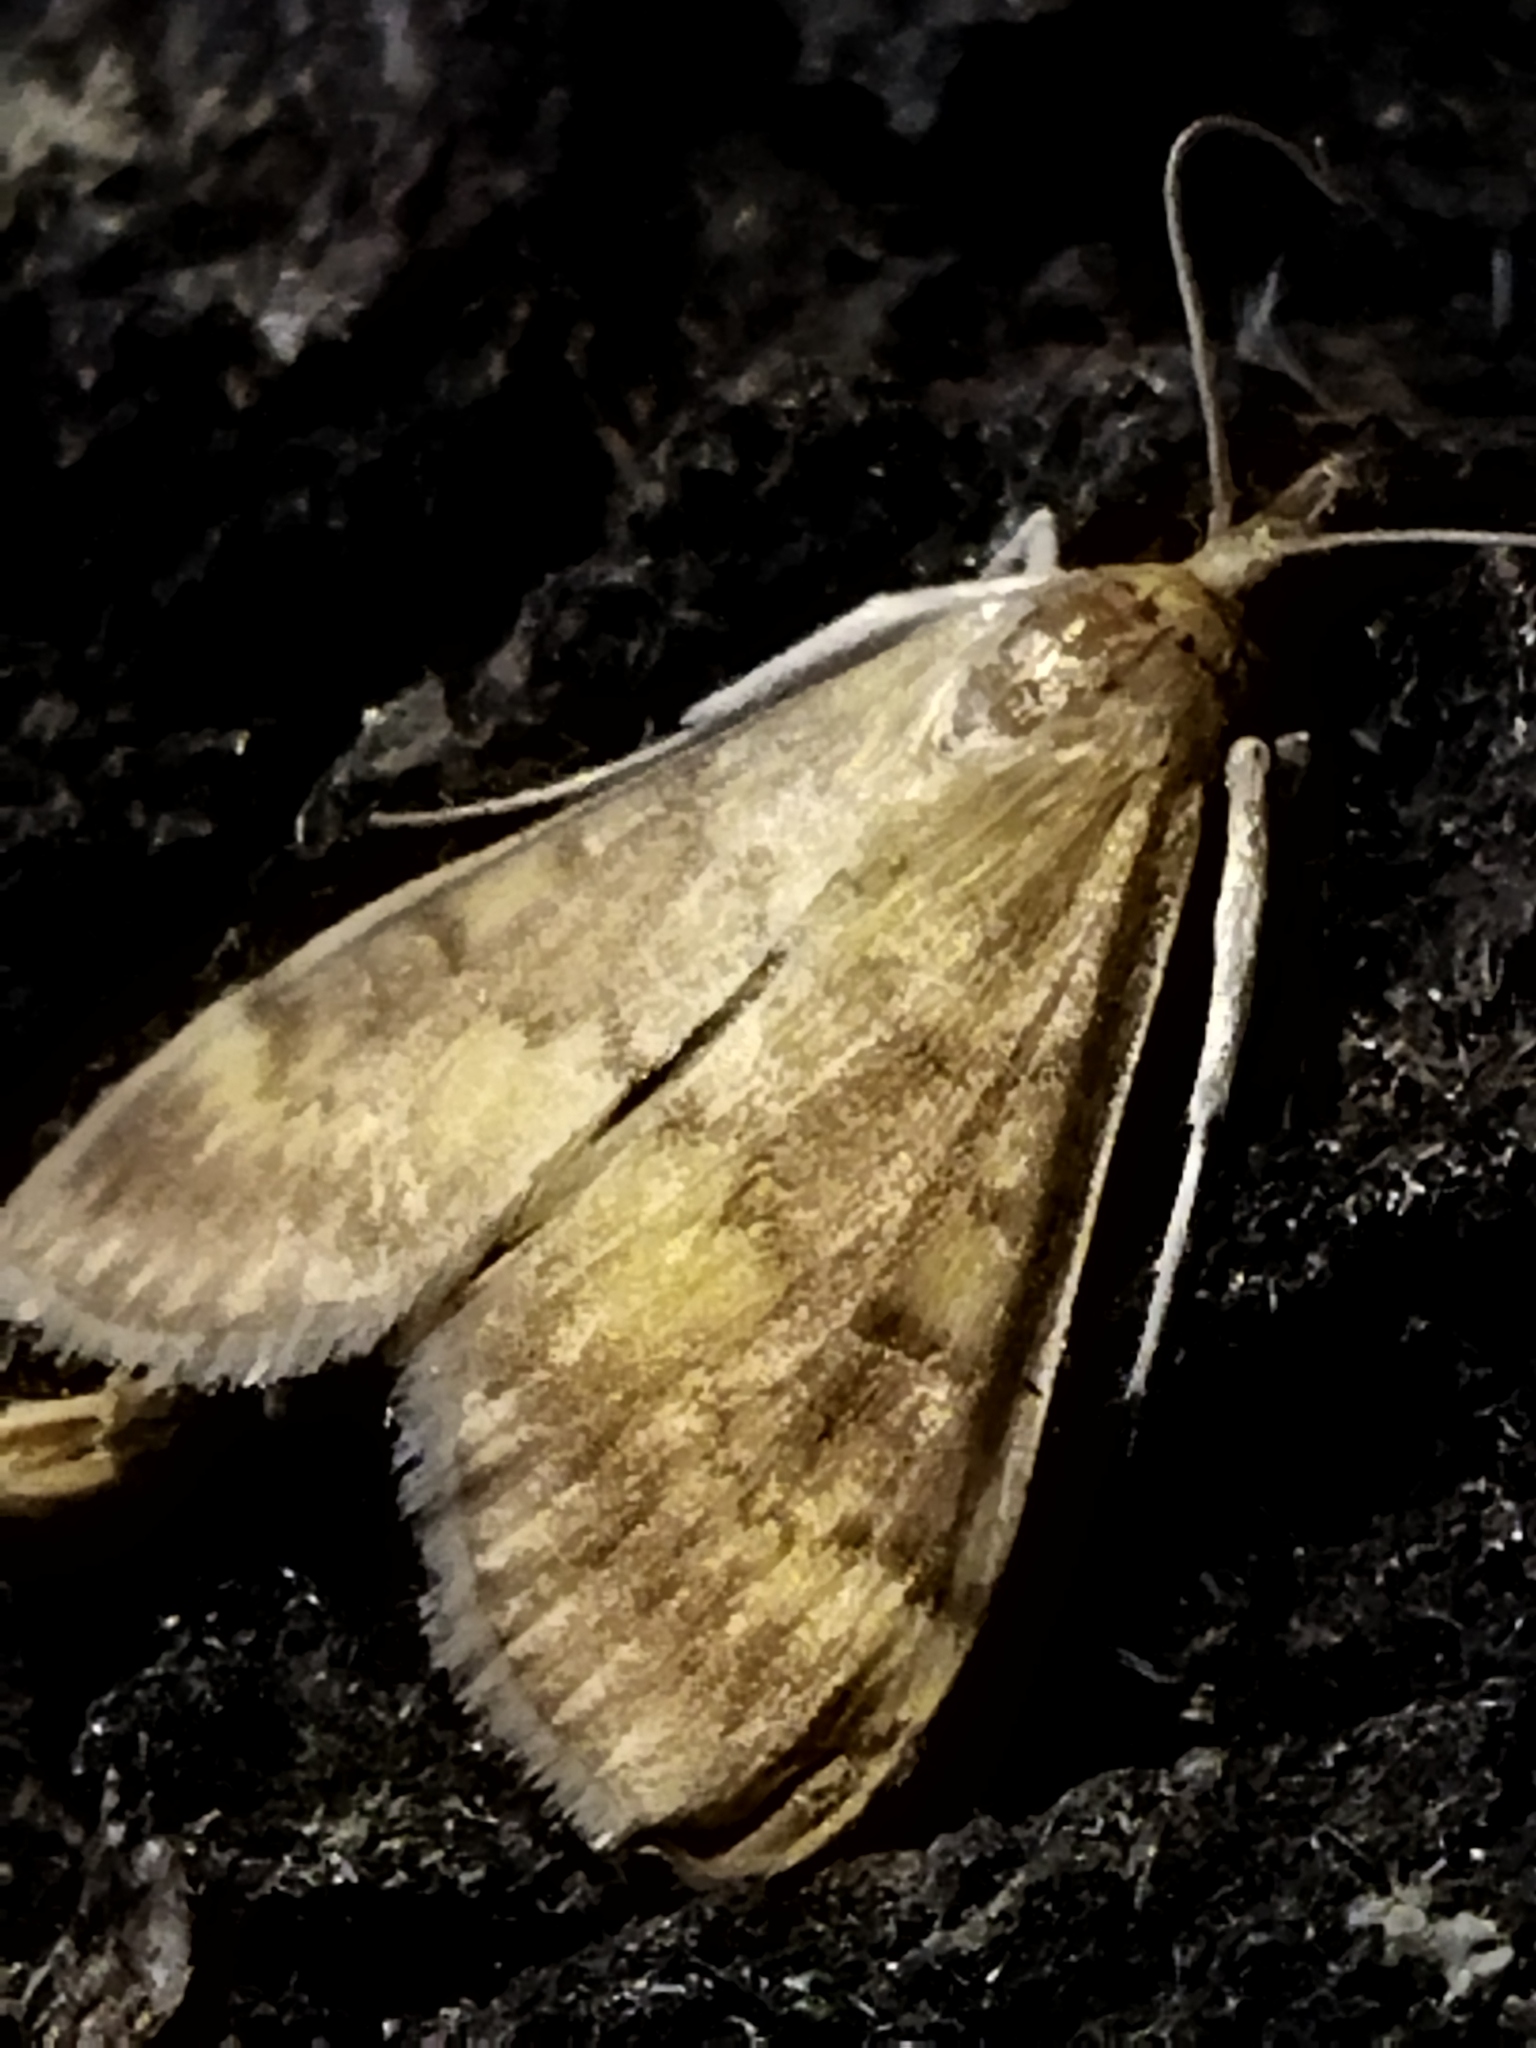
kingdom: Animalia
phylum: Arthropoda
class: Insecta
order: Lepidoptera
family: Crambidae
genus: Ostrinia
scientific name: Ostrinia nubilalis
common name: European corn borer
